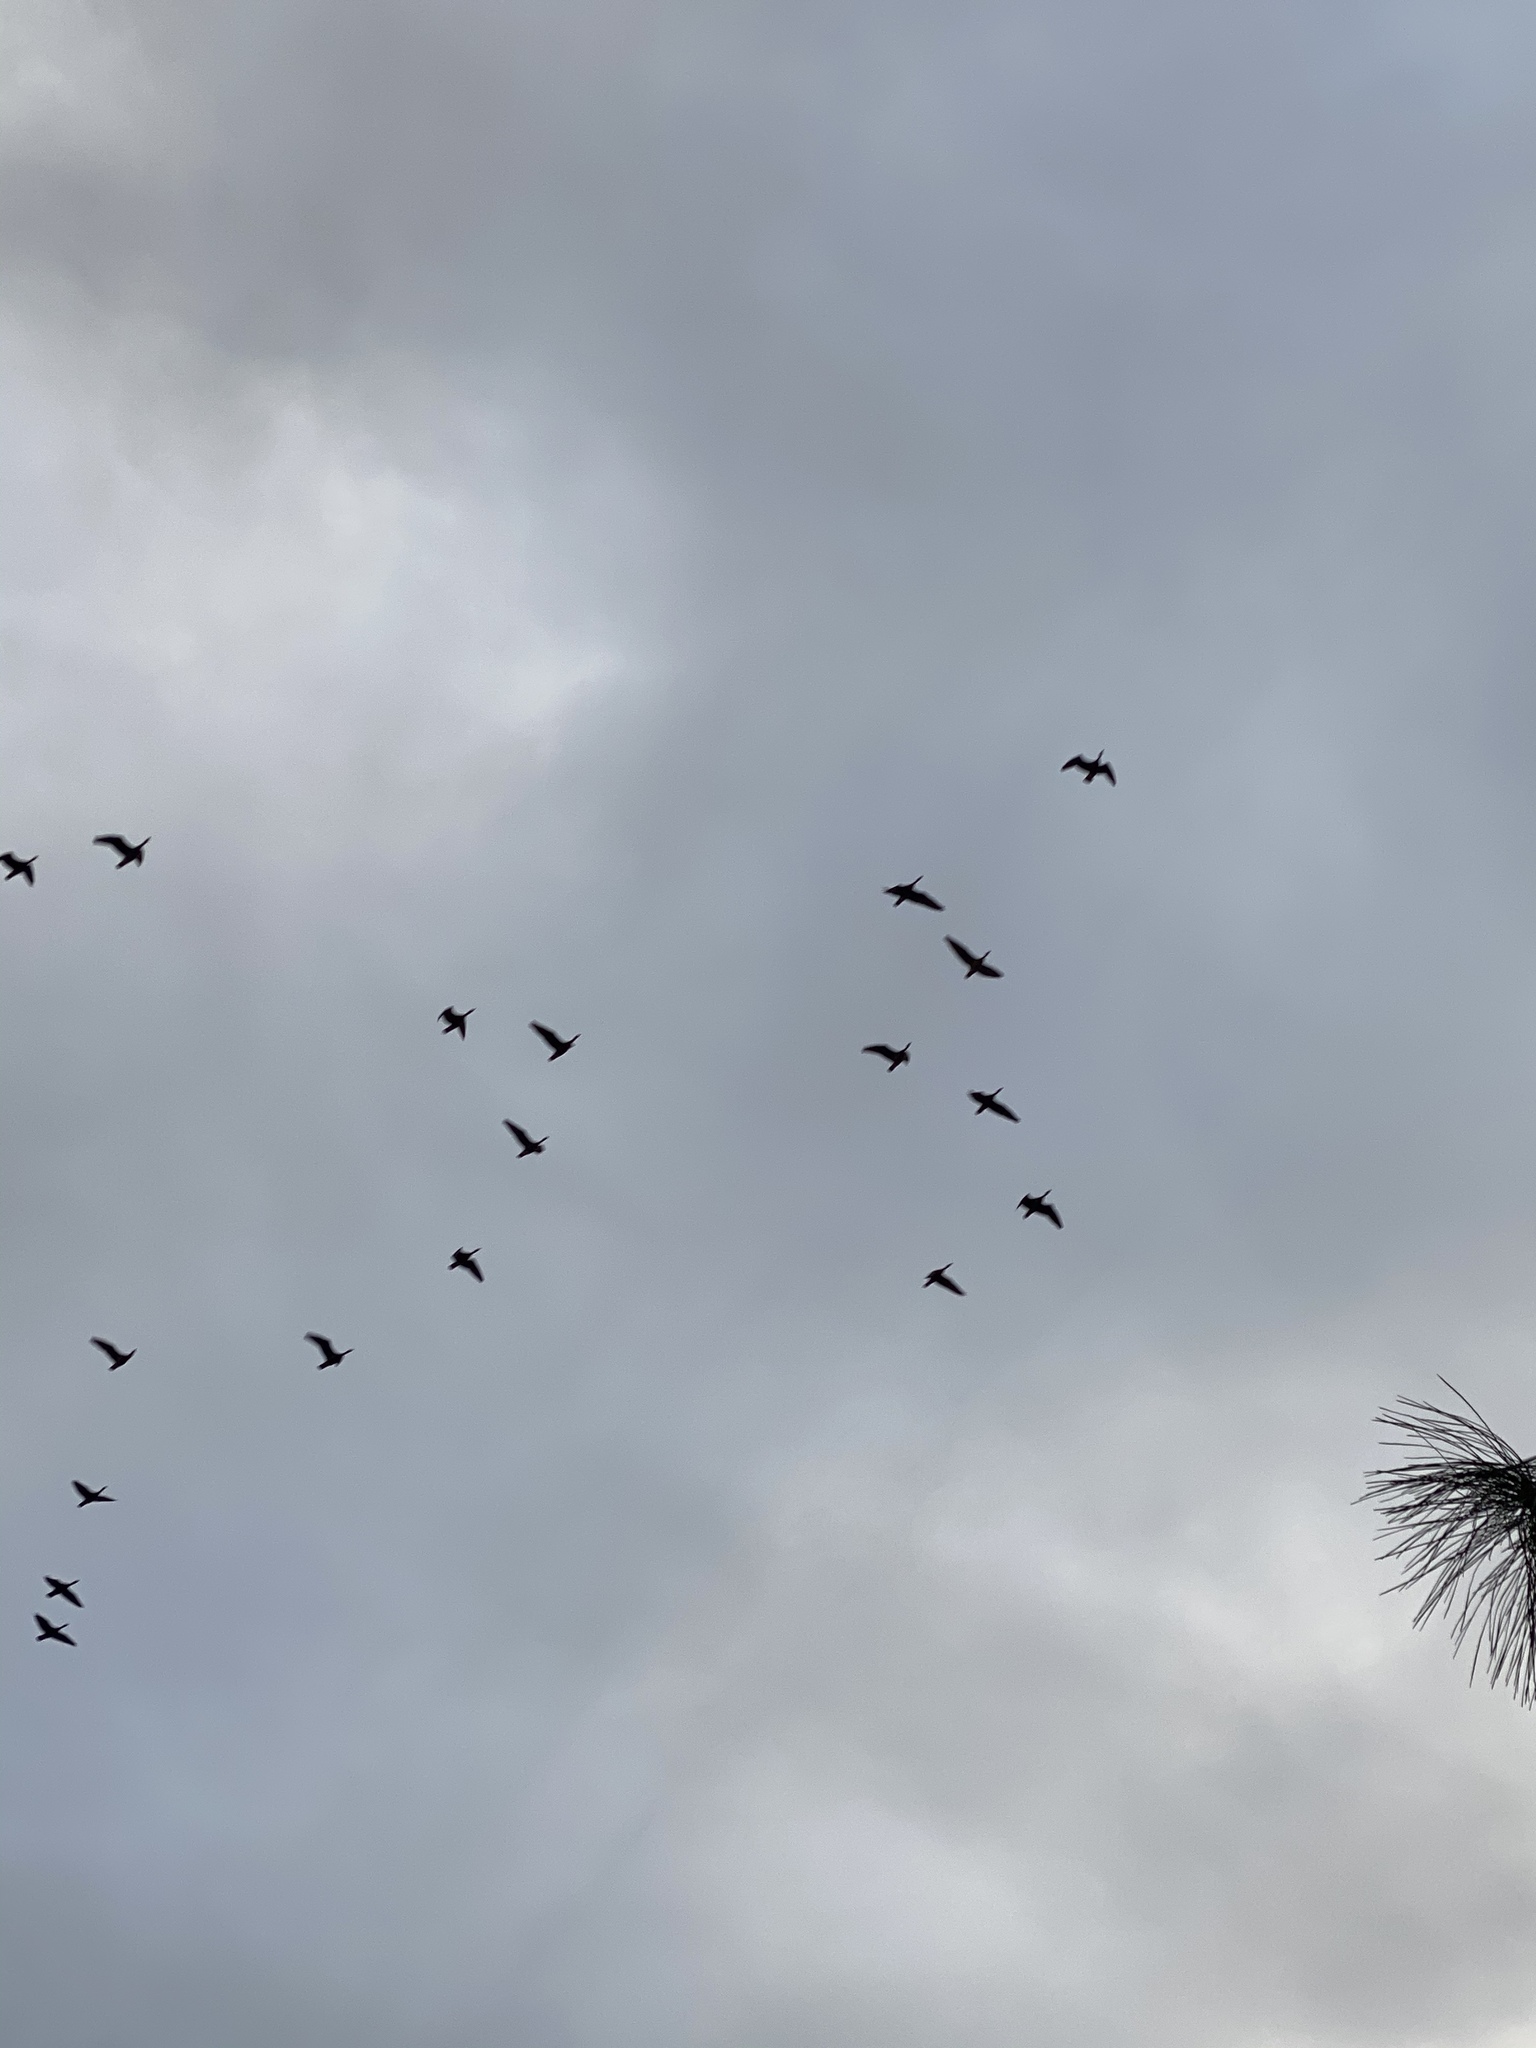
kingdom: Animalia
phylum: Chordata
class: Aves
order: Anseriformes
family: Anatidae
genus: Branta
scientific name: Branta canadensis
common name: Canada goose
